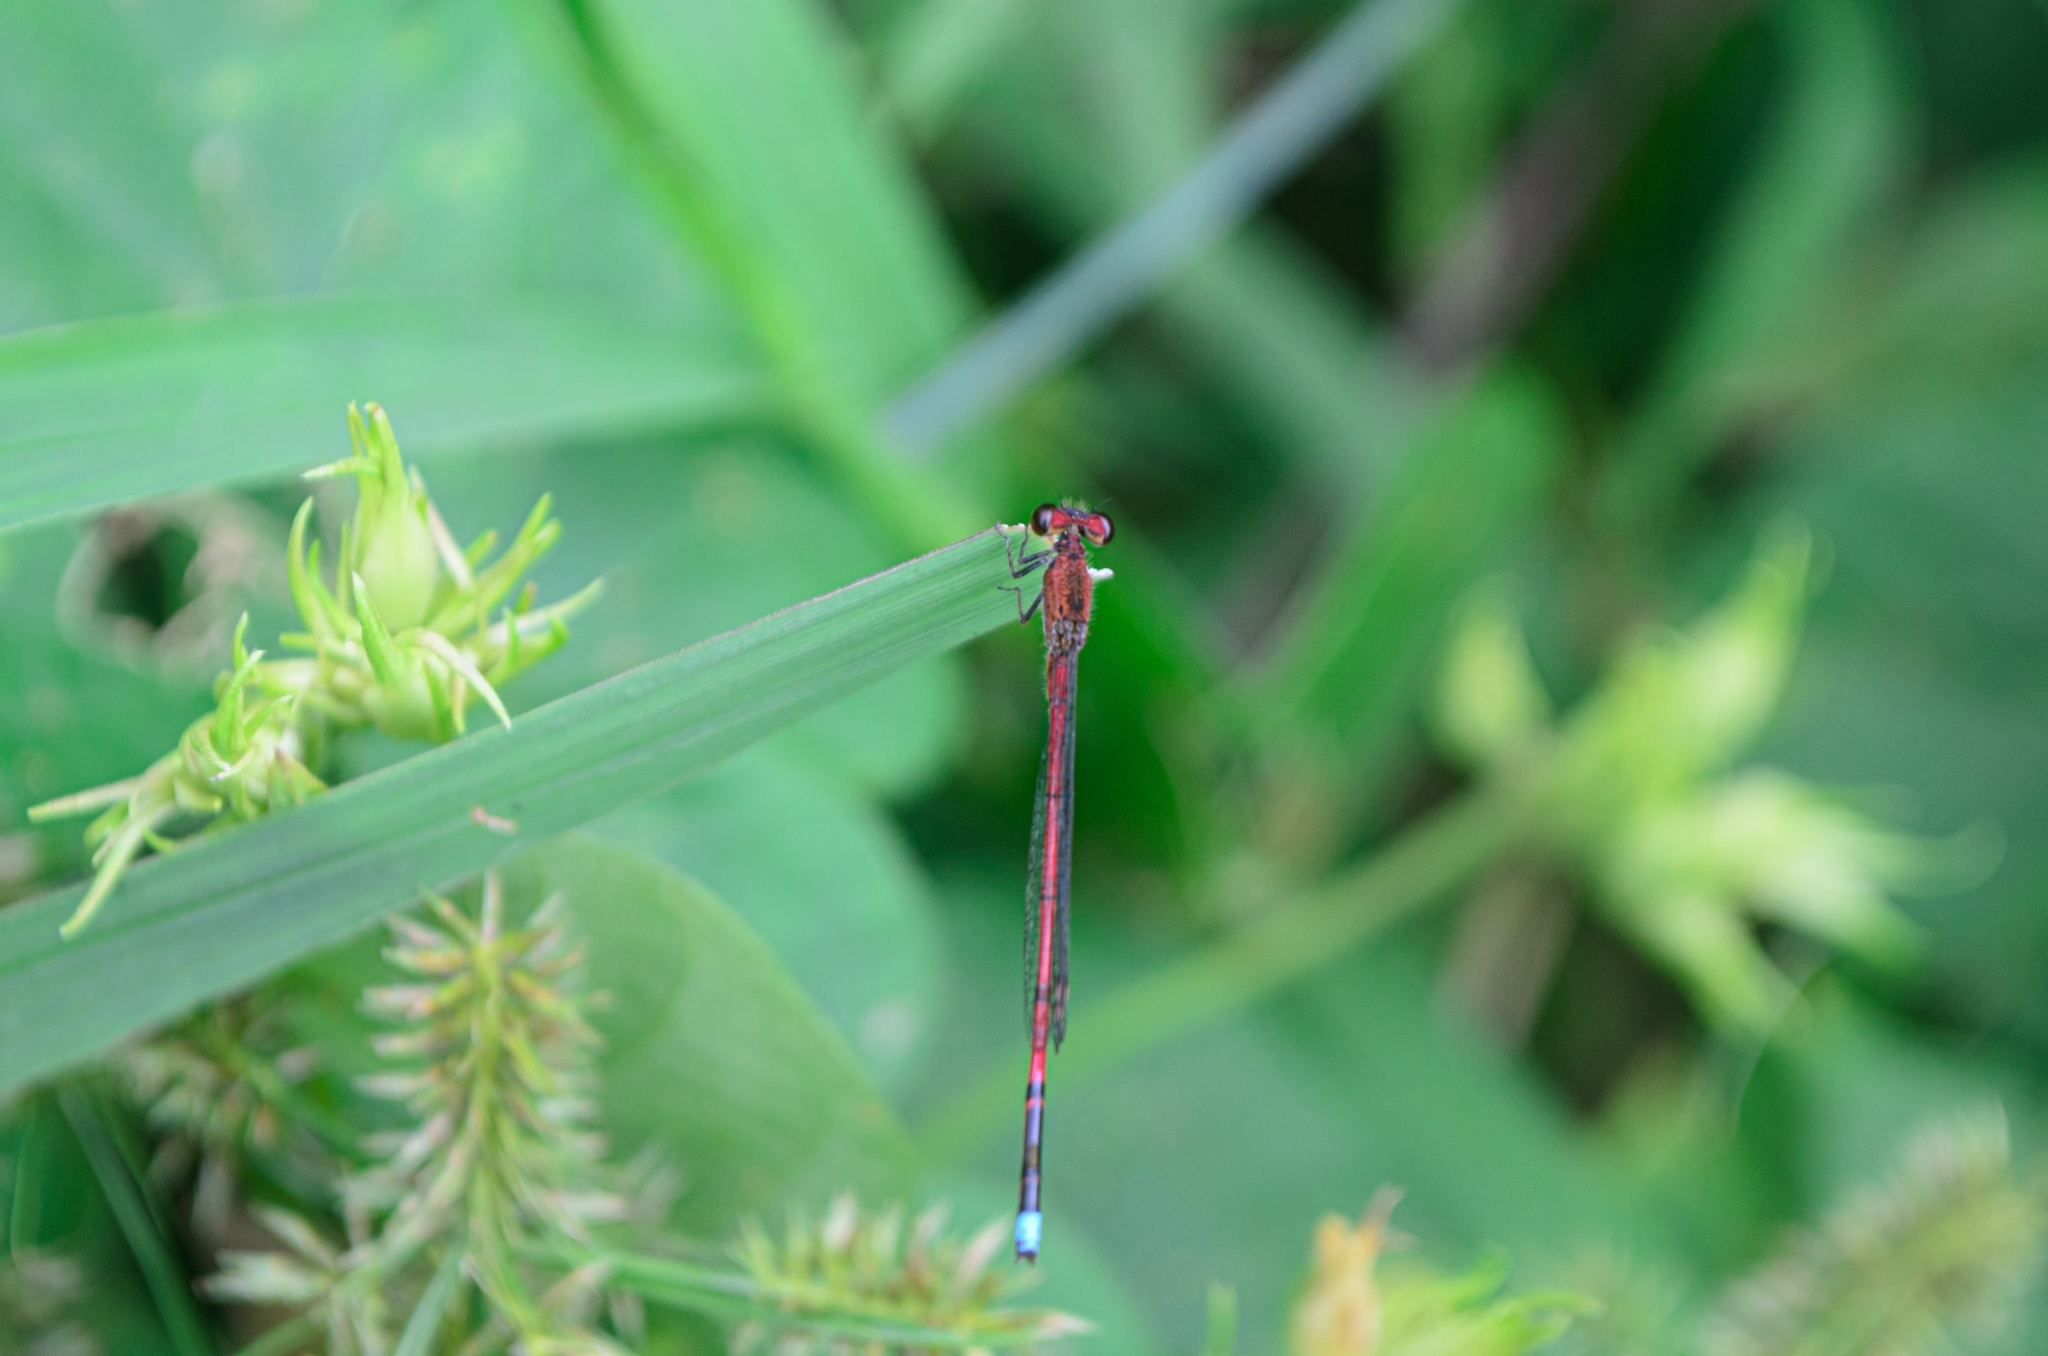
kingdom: Animalia
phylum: Arthropoda
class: Insecta
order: Odonata
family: Coenagrionidae
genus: Oxyagrion
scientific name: Oxyagrion terminale
